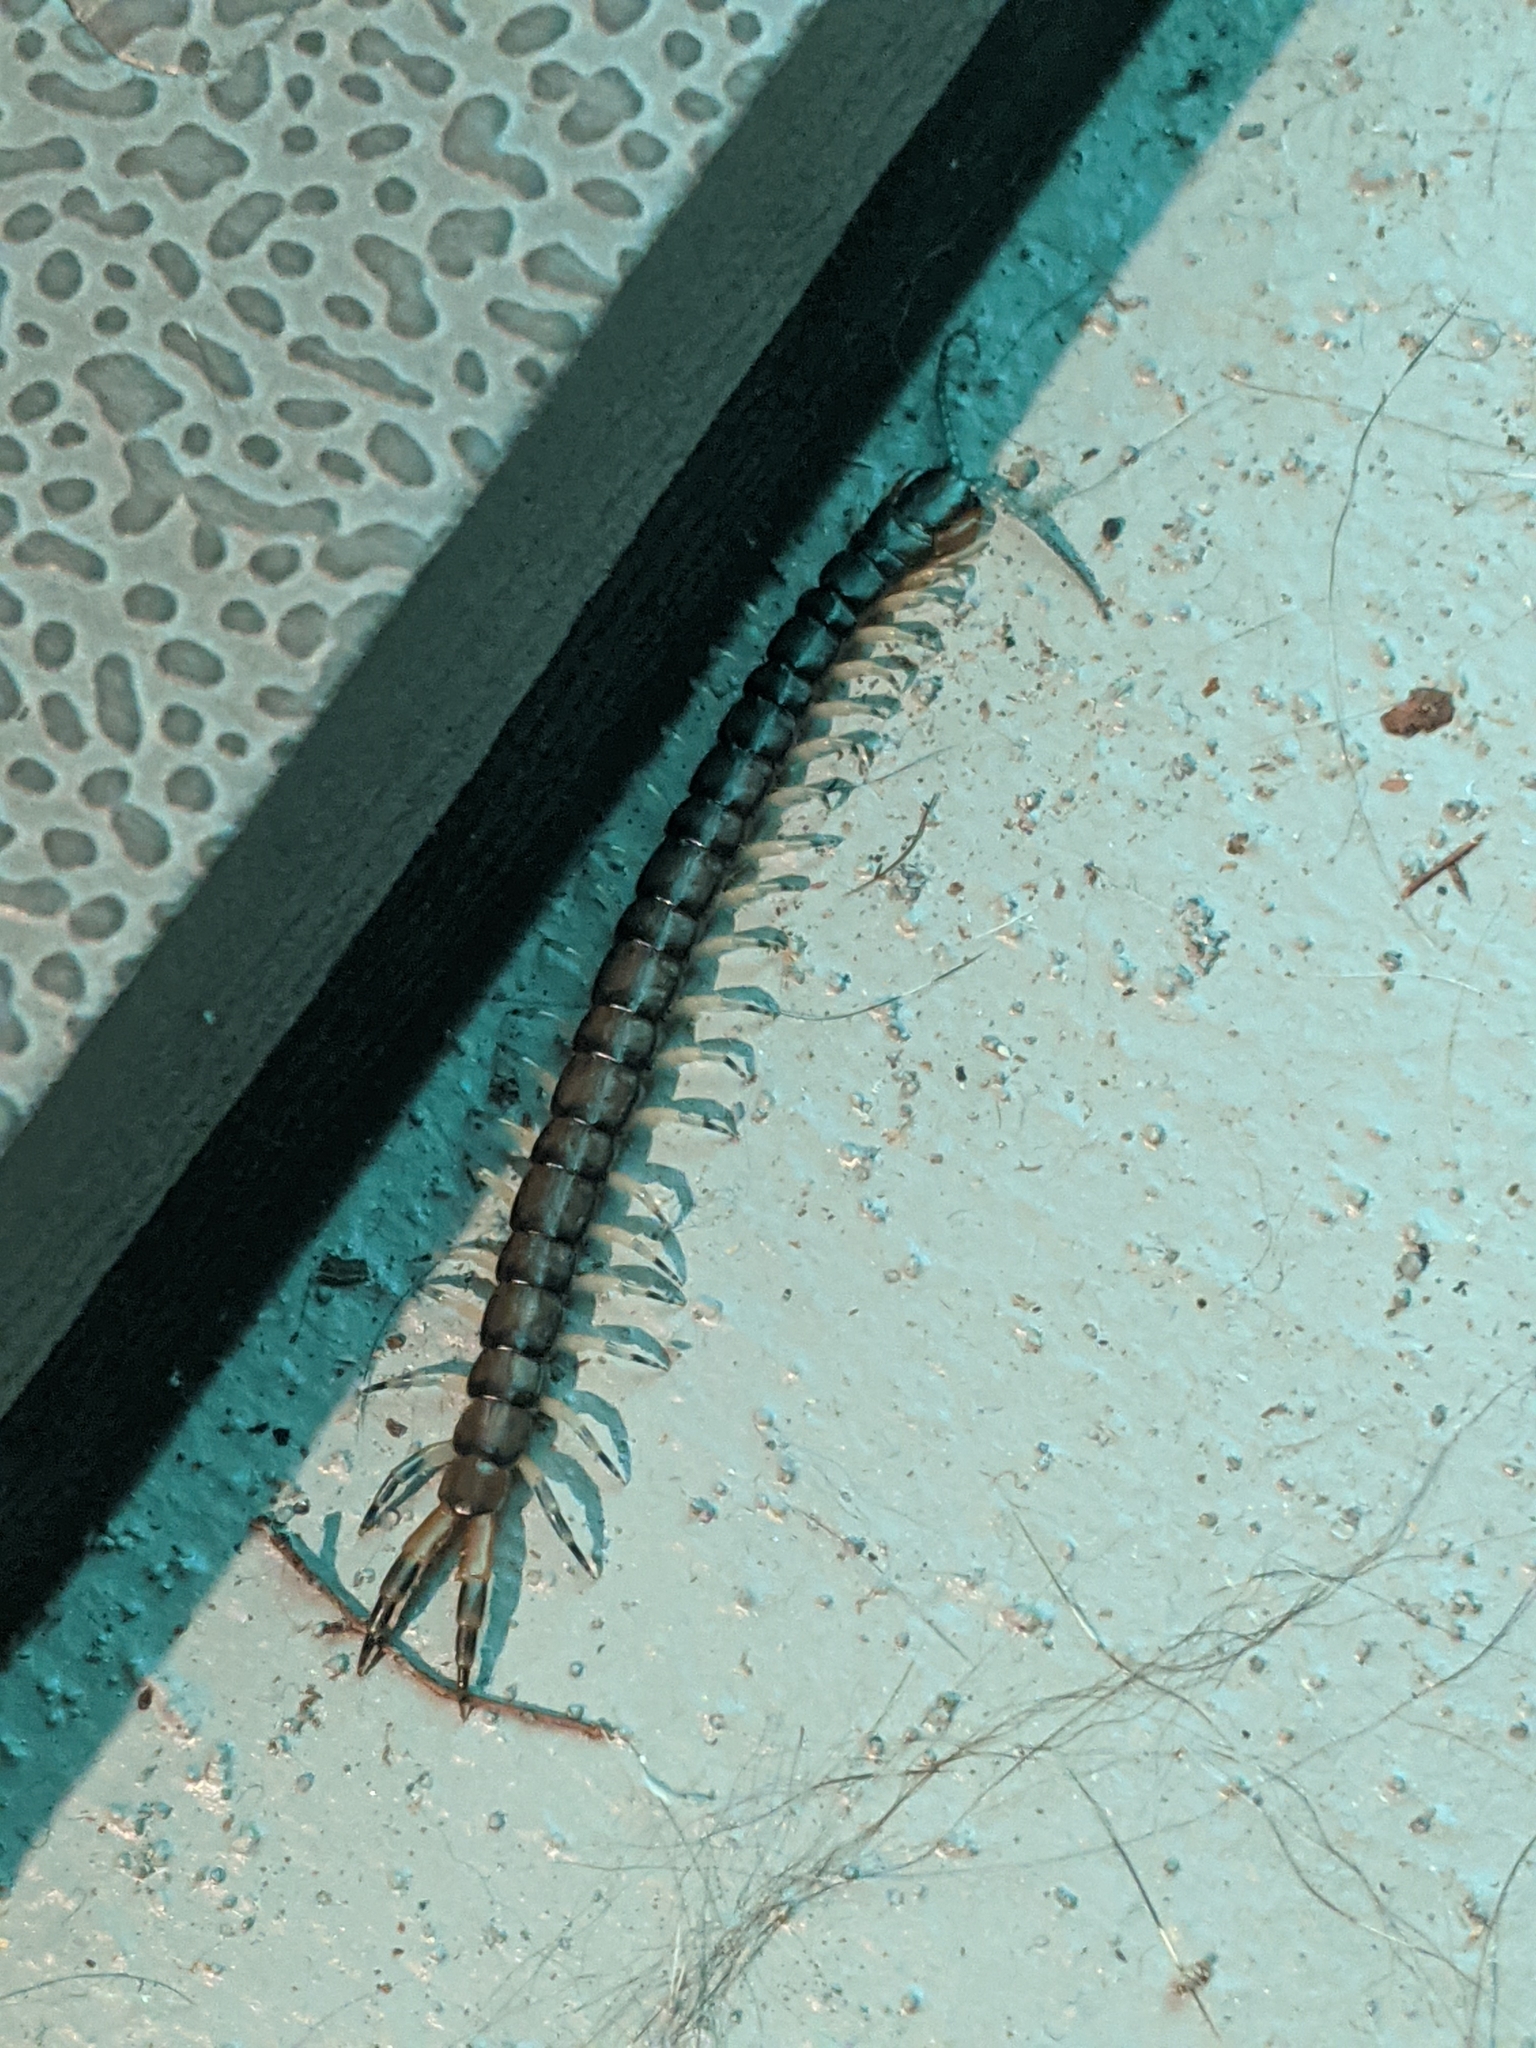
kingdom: Animalia
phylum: Arthropoda
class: Chilopoda
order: Scolopendromorpha
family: Scolopendridae
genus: Hemiscolopendra
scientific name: Hemiscolopendra marginata
